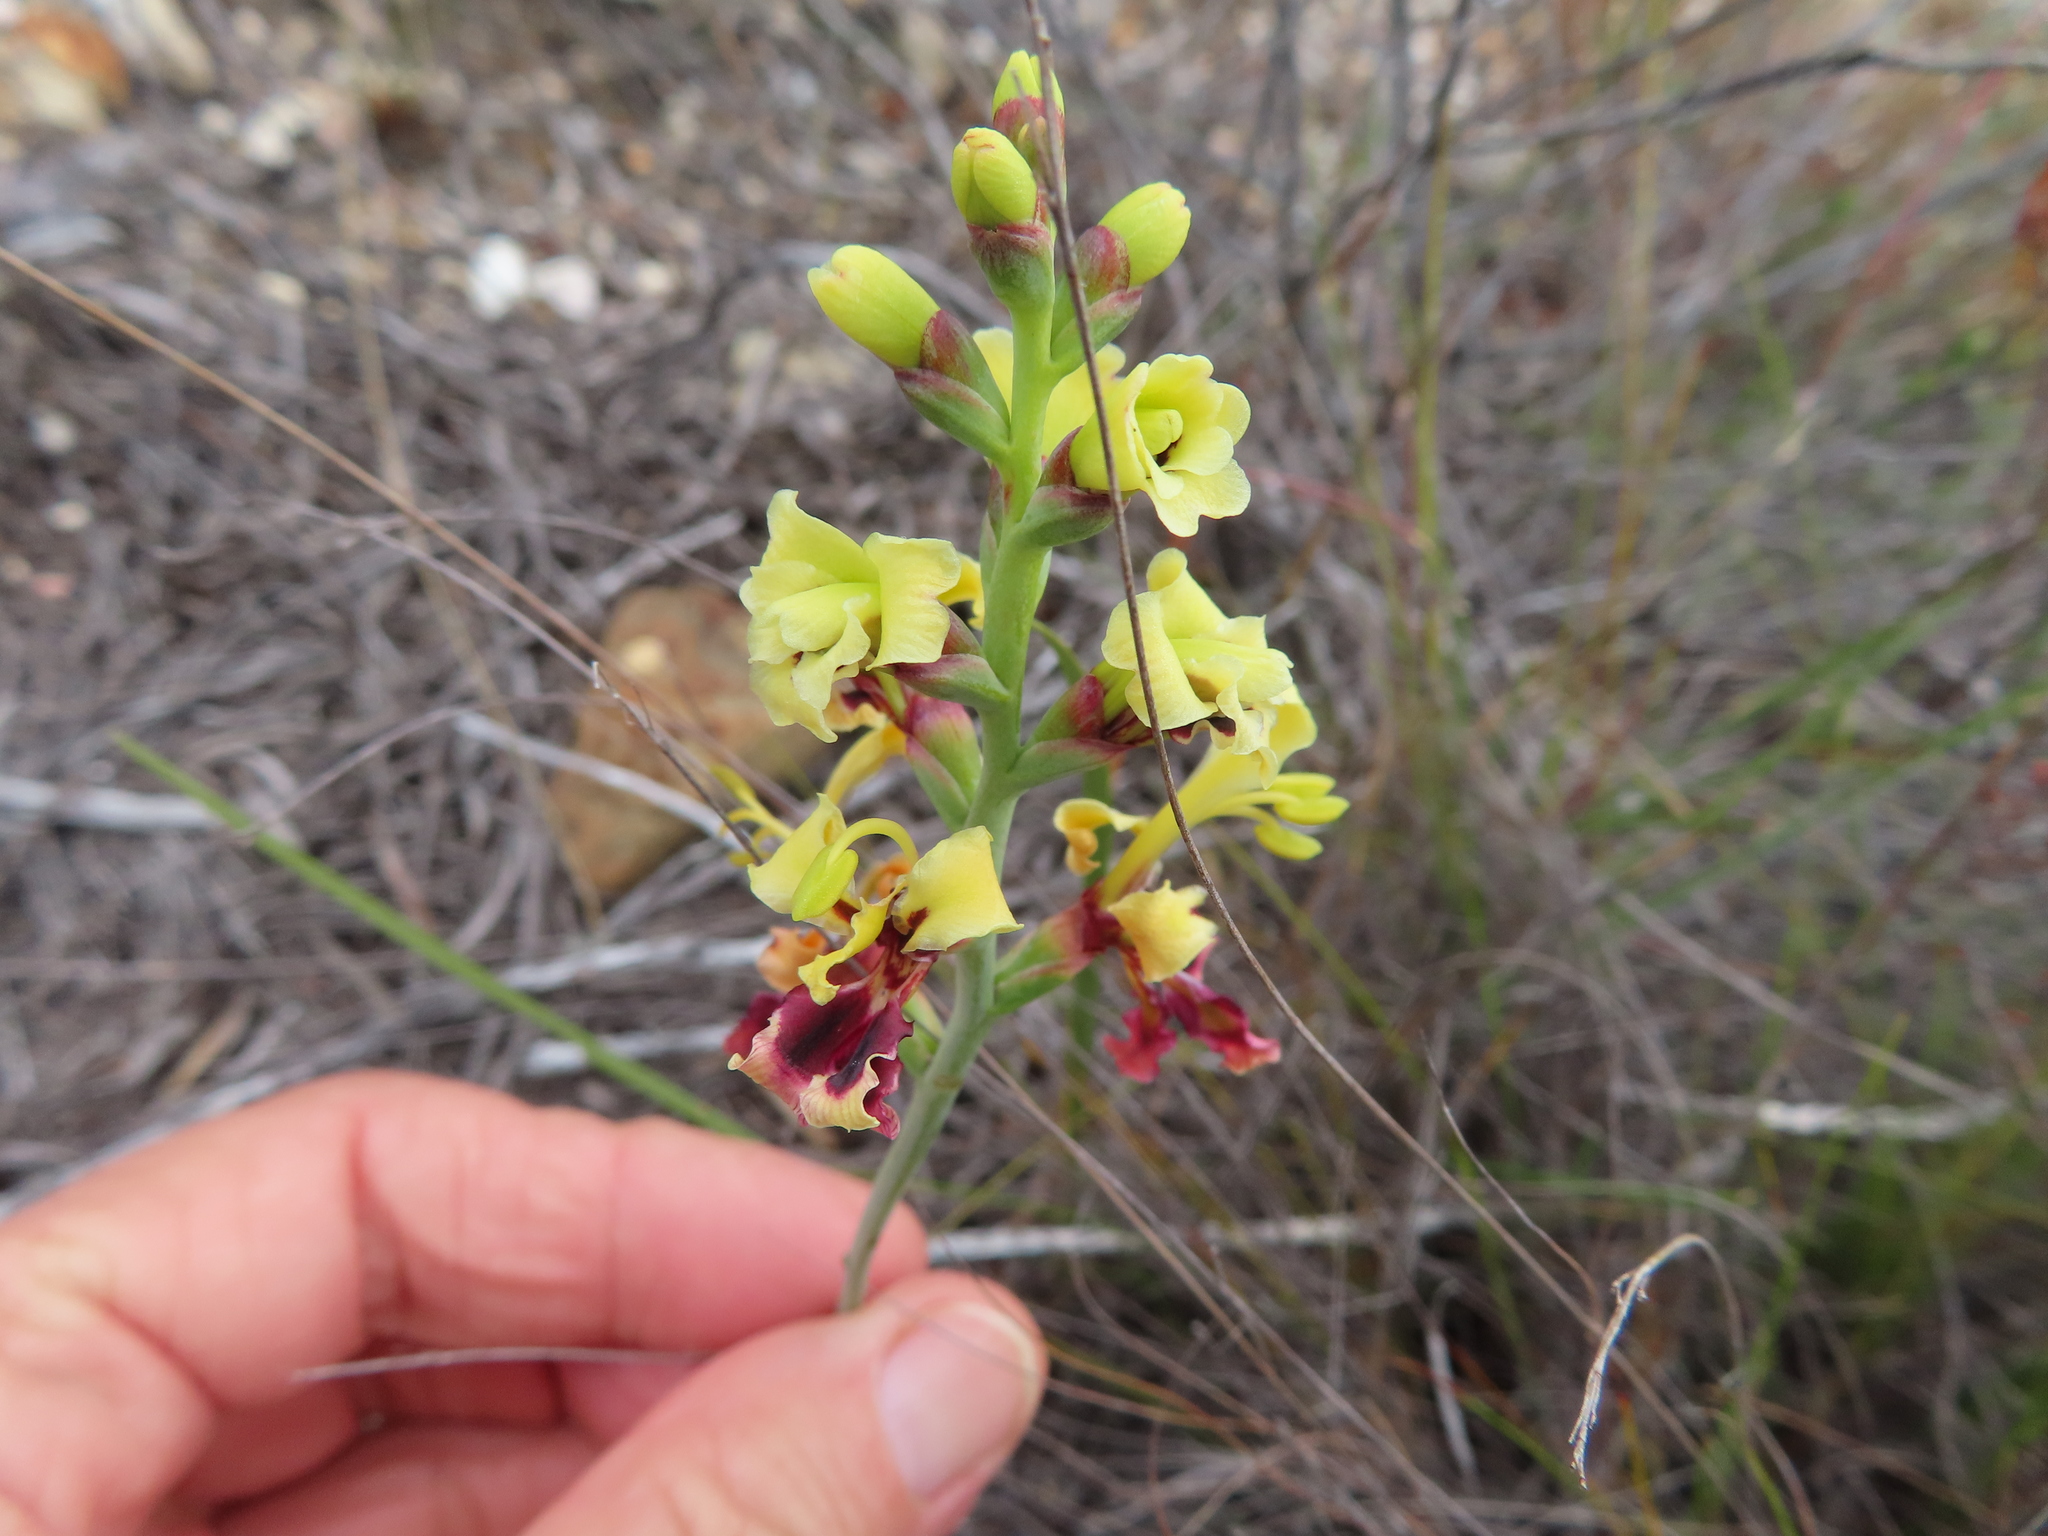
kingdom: Plantae
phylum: Tracheophyta
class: Liliopsida
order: Asparagales
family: Iridaceae
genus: Tritoniopsis
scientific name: Tritoniopsis parviflora
